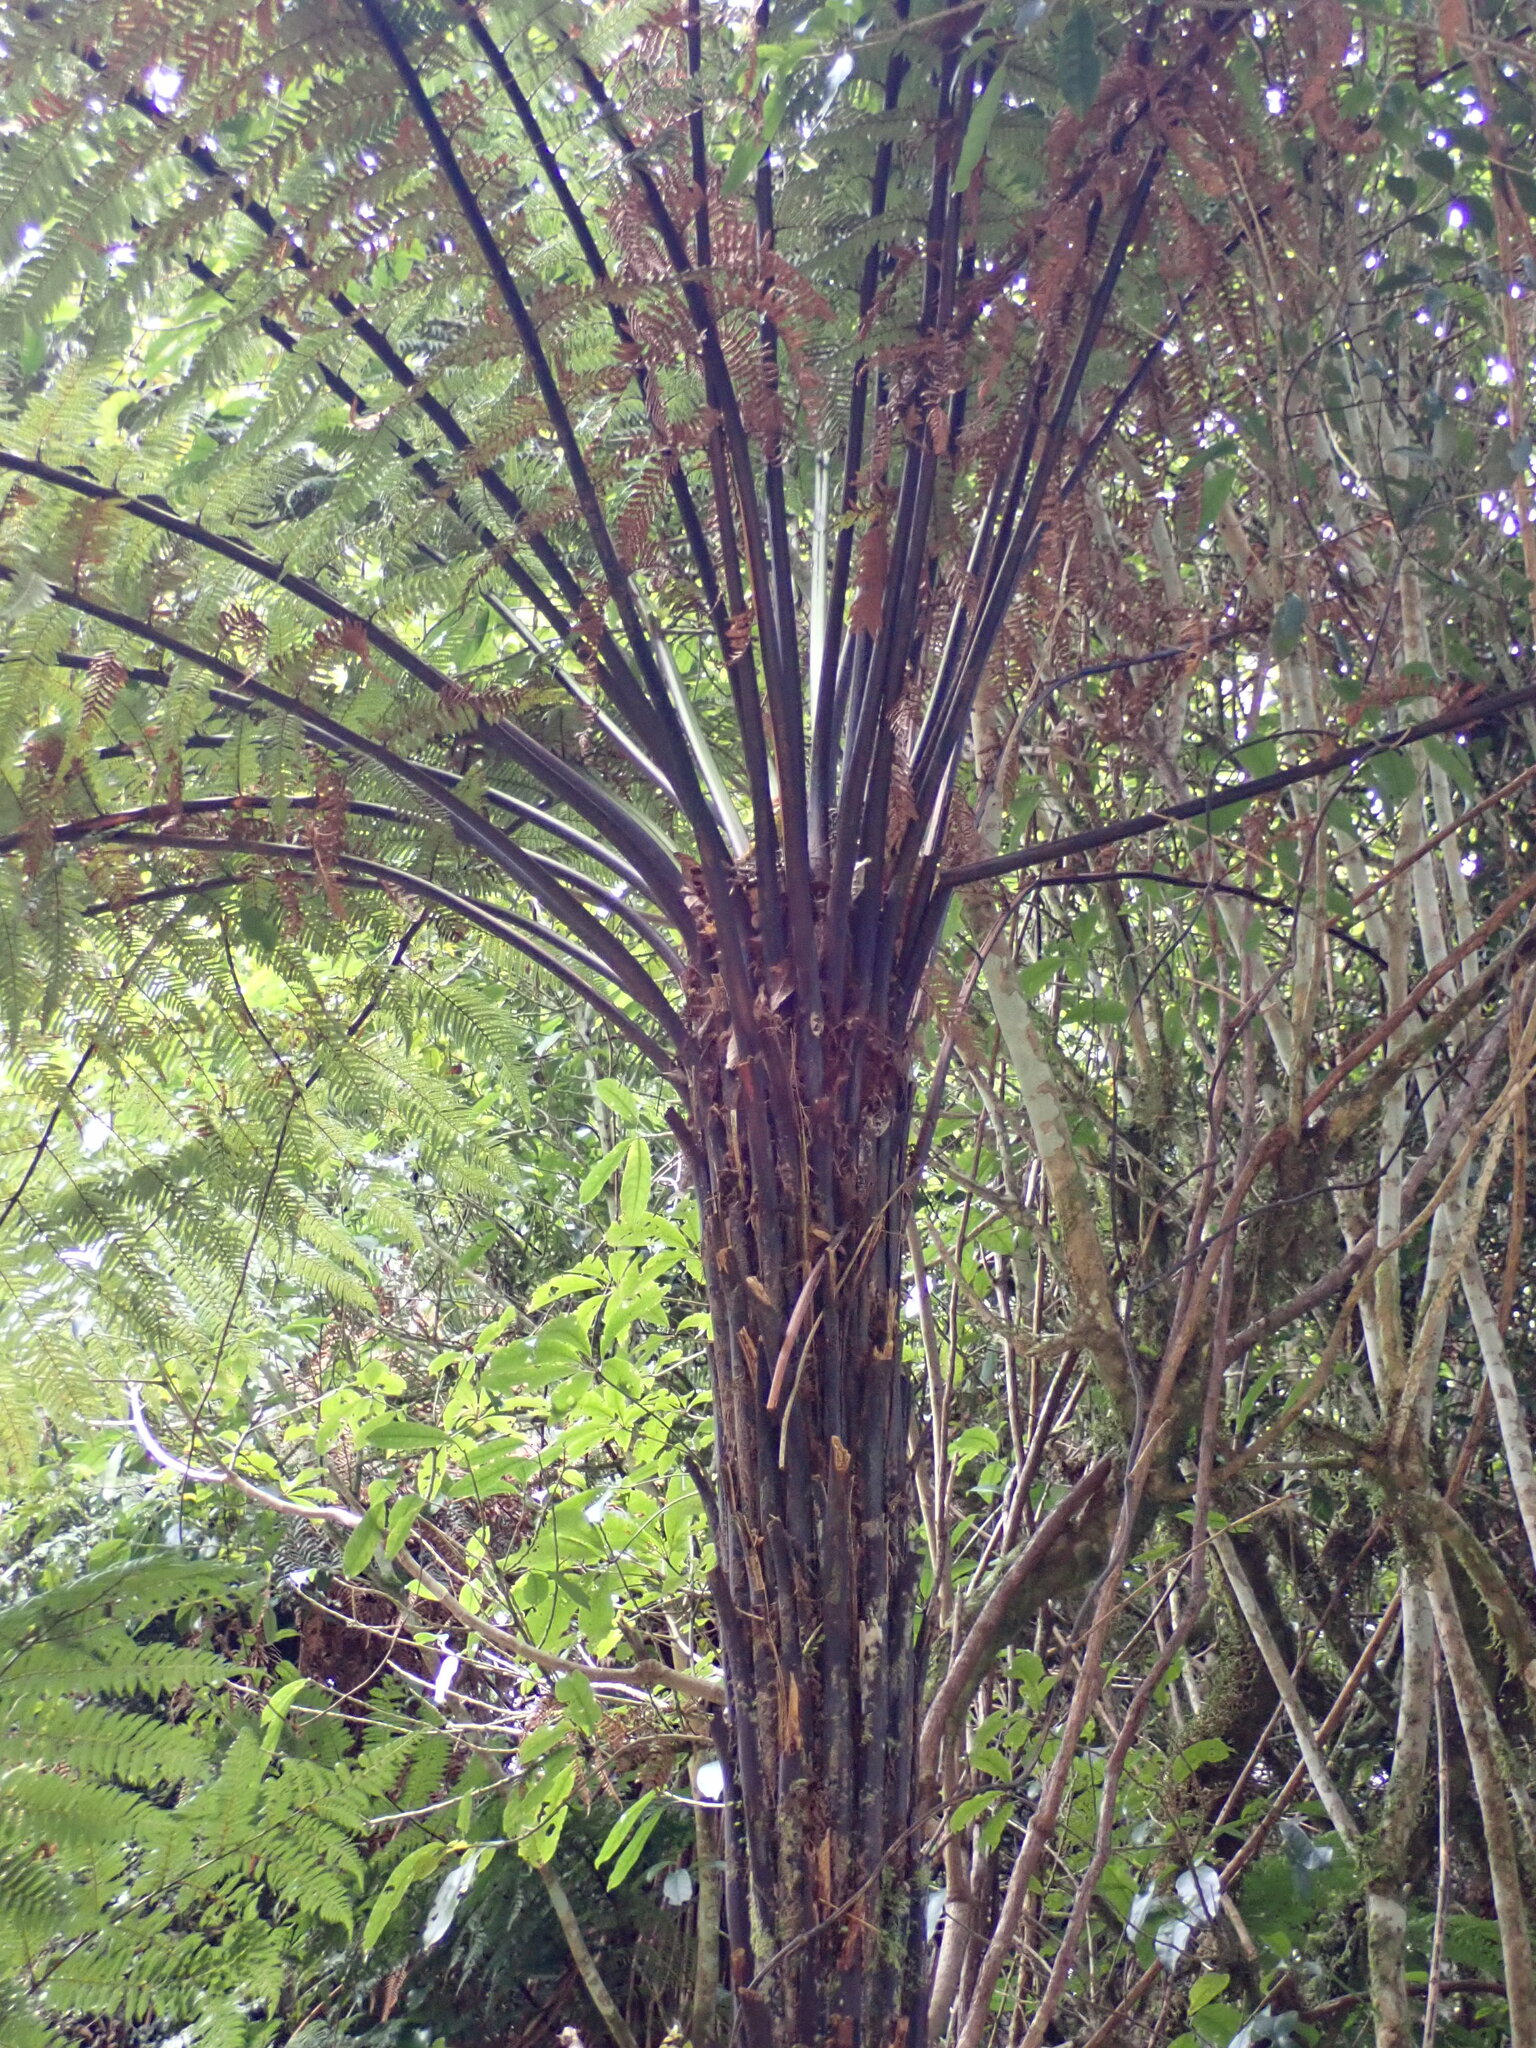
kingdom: Plantae
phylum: Tracheophyta
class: Polypodiopsida
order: Cyatheales
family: Dicksoniaceae
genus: Dicksonia
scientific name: Dicksonia squarrosa
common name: Hard treefern
